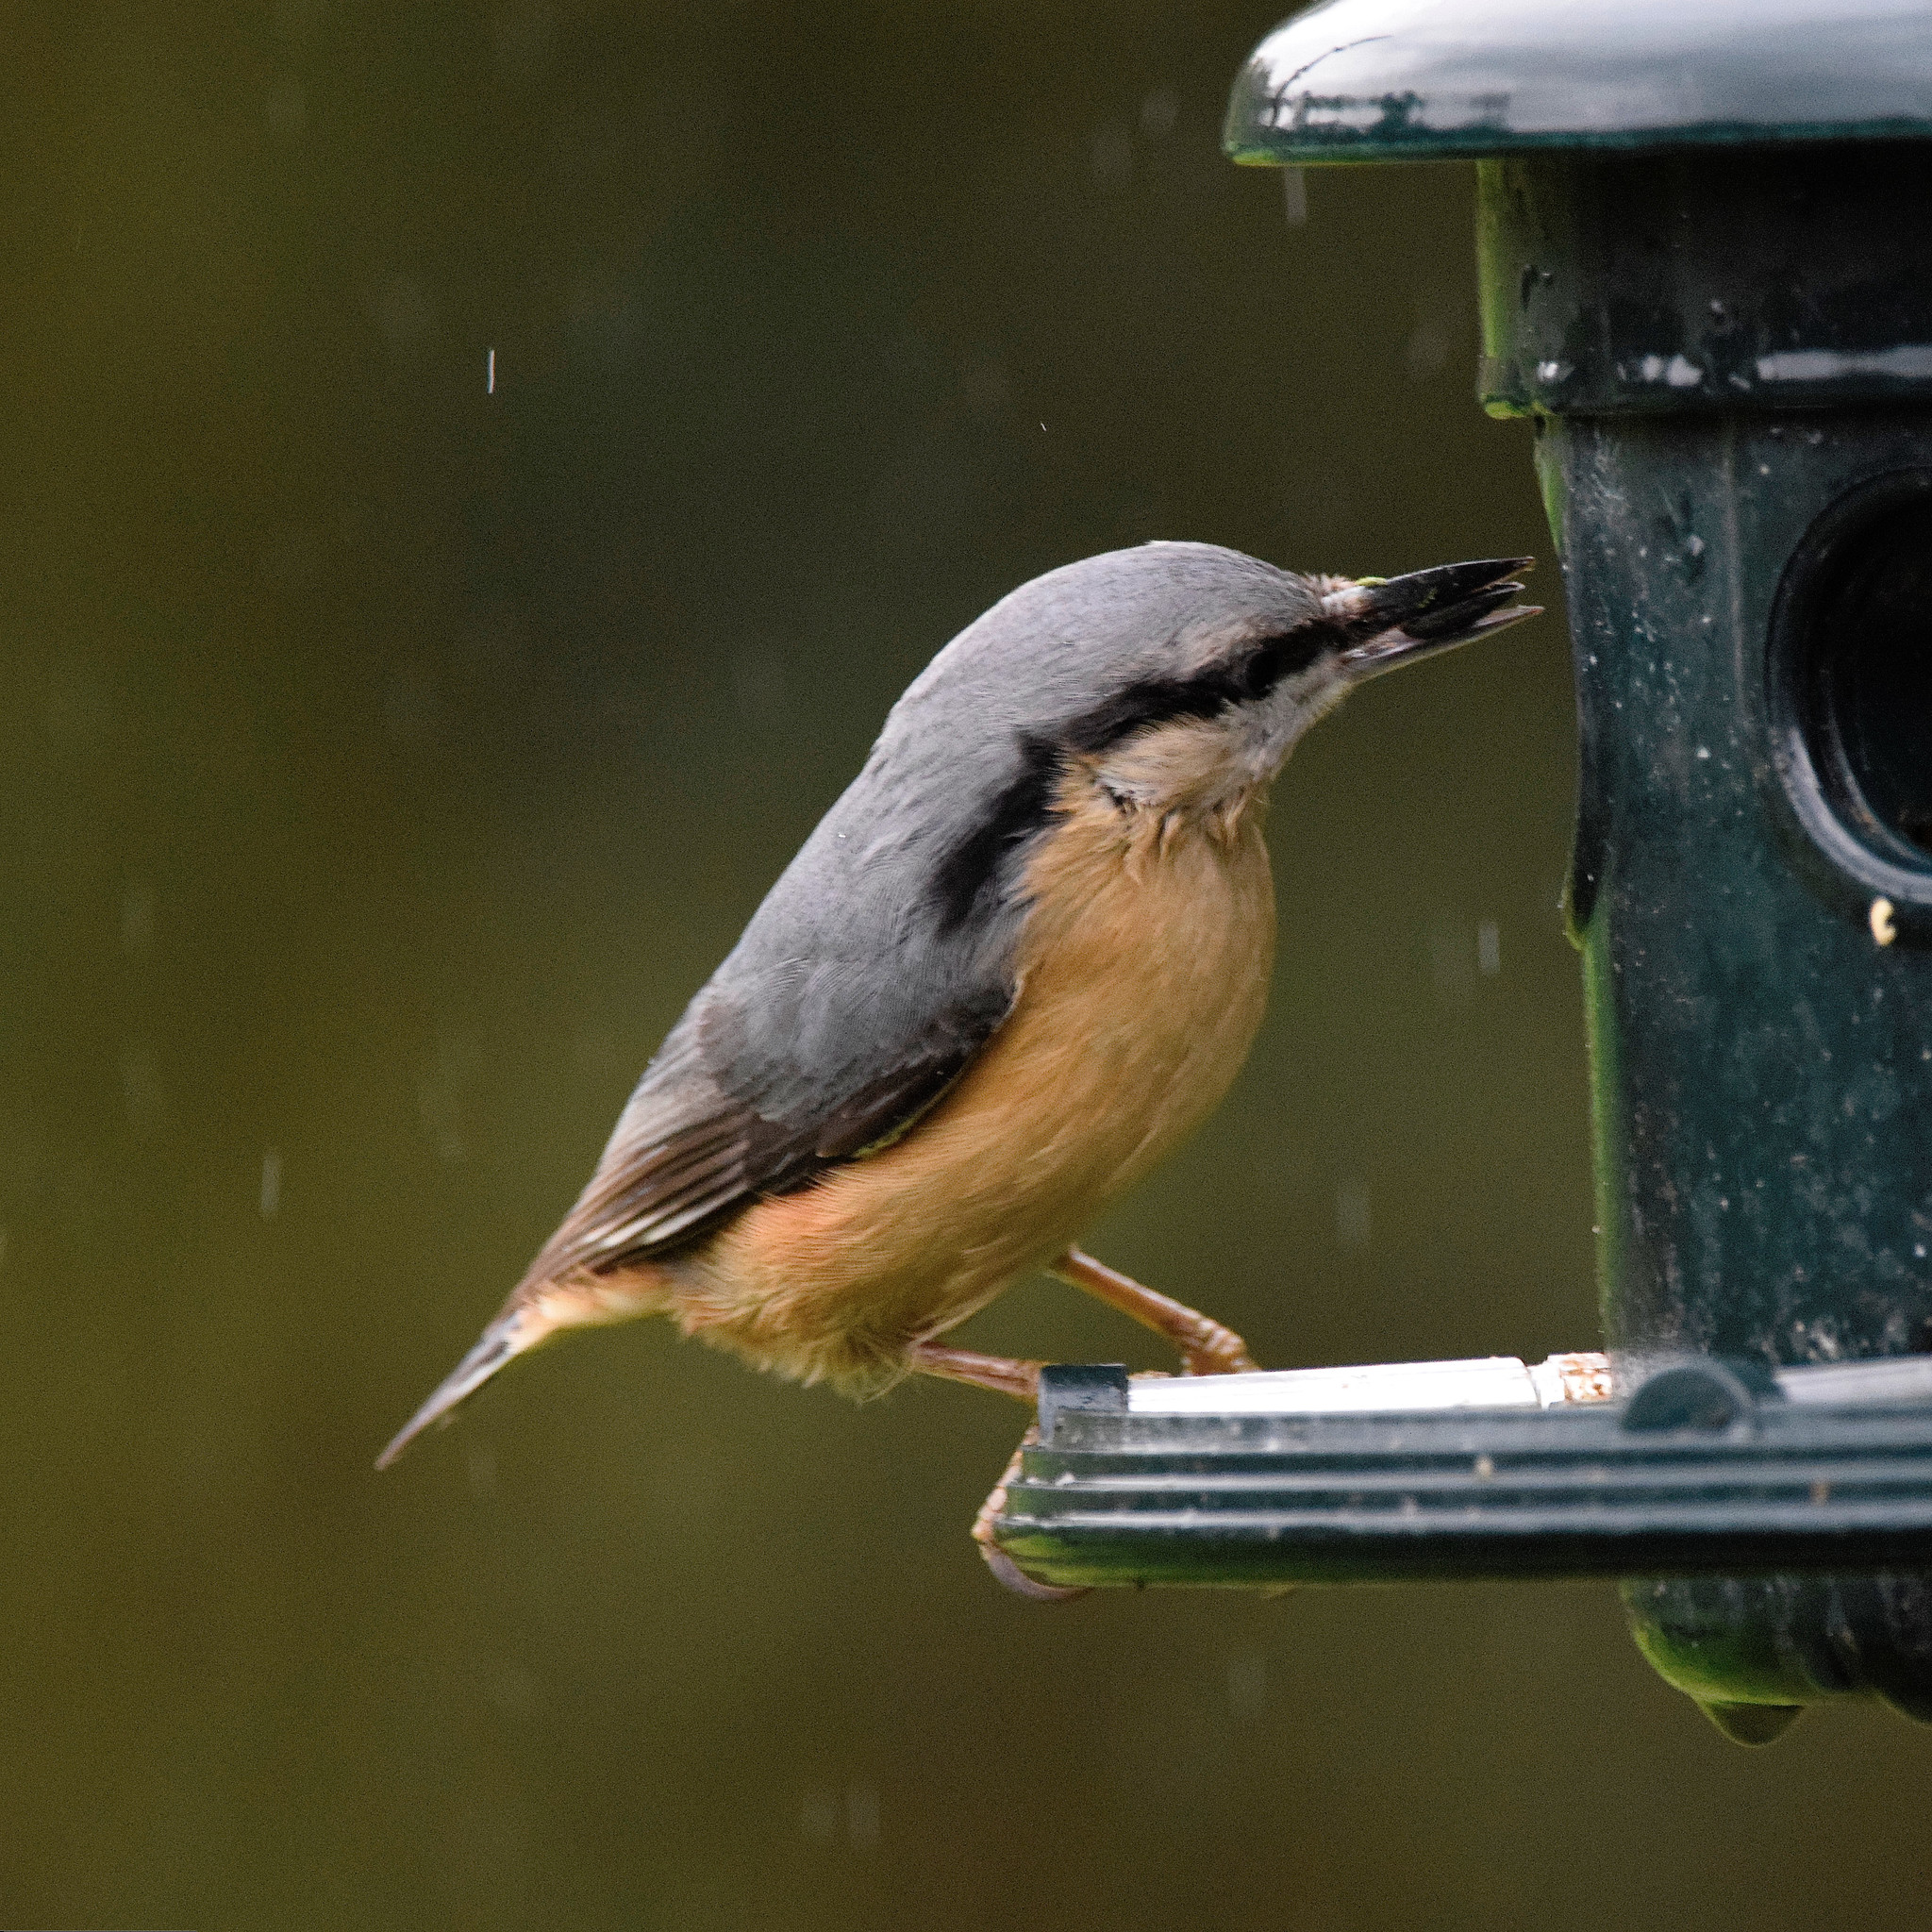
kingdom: Animalia
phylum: Chordata
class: Aves
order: Passeriformes
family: Sittidae
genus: Sitta
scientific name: Sitta europaea
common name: Eurasian nuthatch
